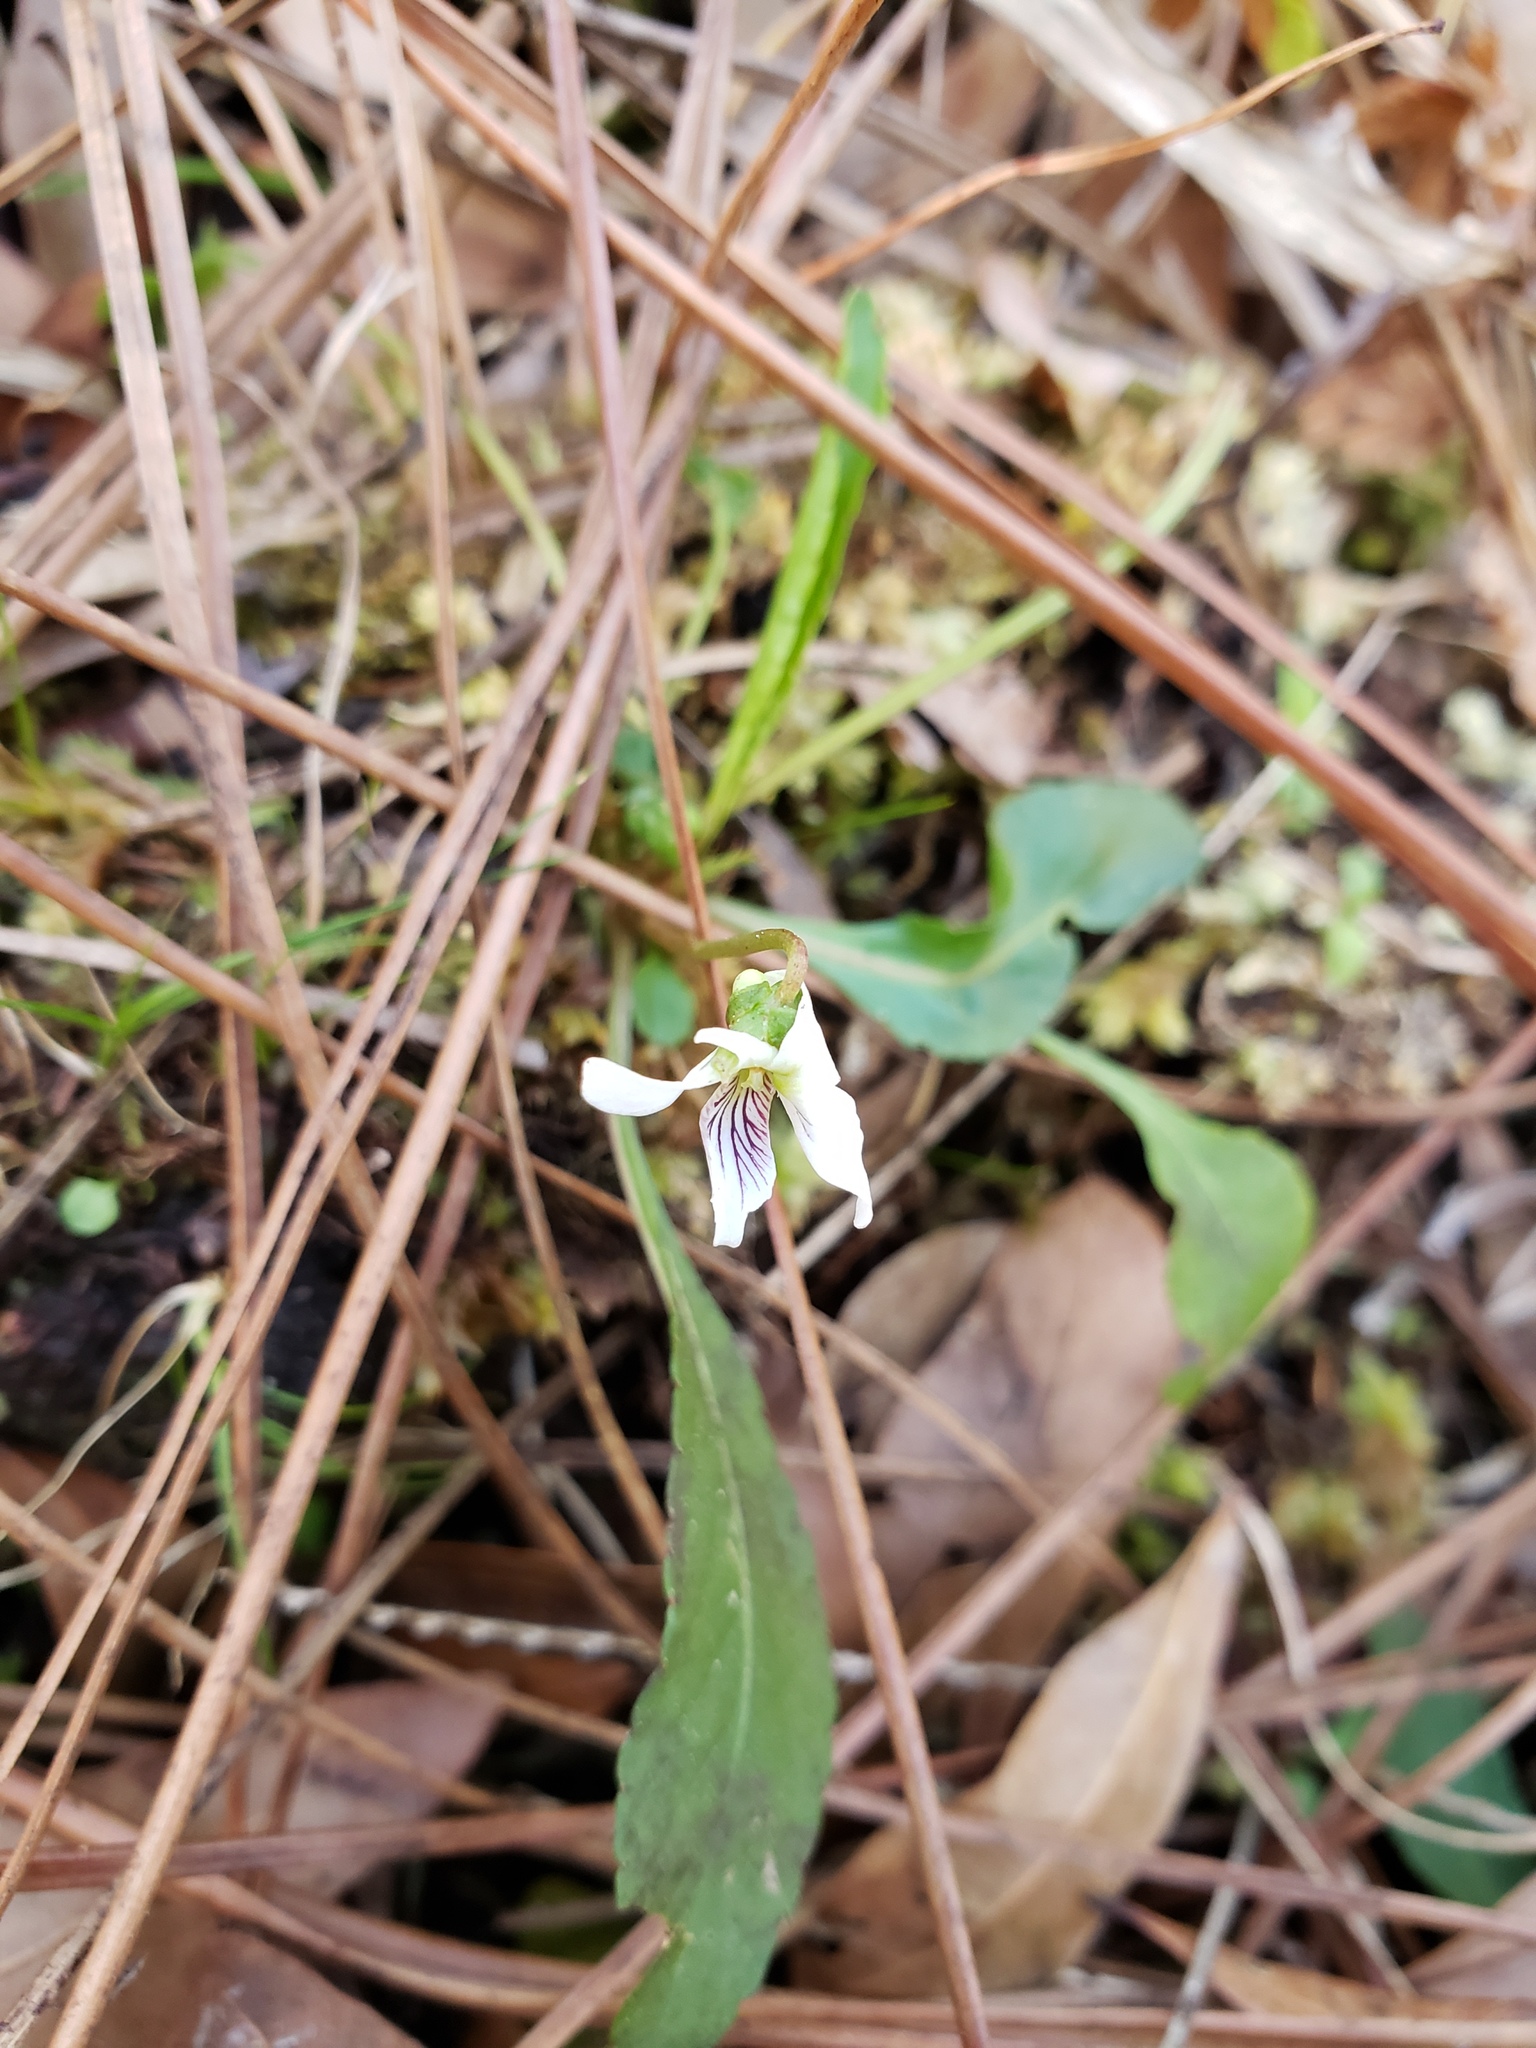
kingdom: Plantae
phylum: Tracheophyta
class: Magnoliopsida
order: Malpighiales
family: Violaceae
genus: Viola
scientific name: Viola lanceolata
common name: Bog white violet
